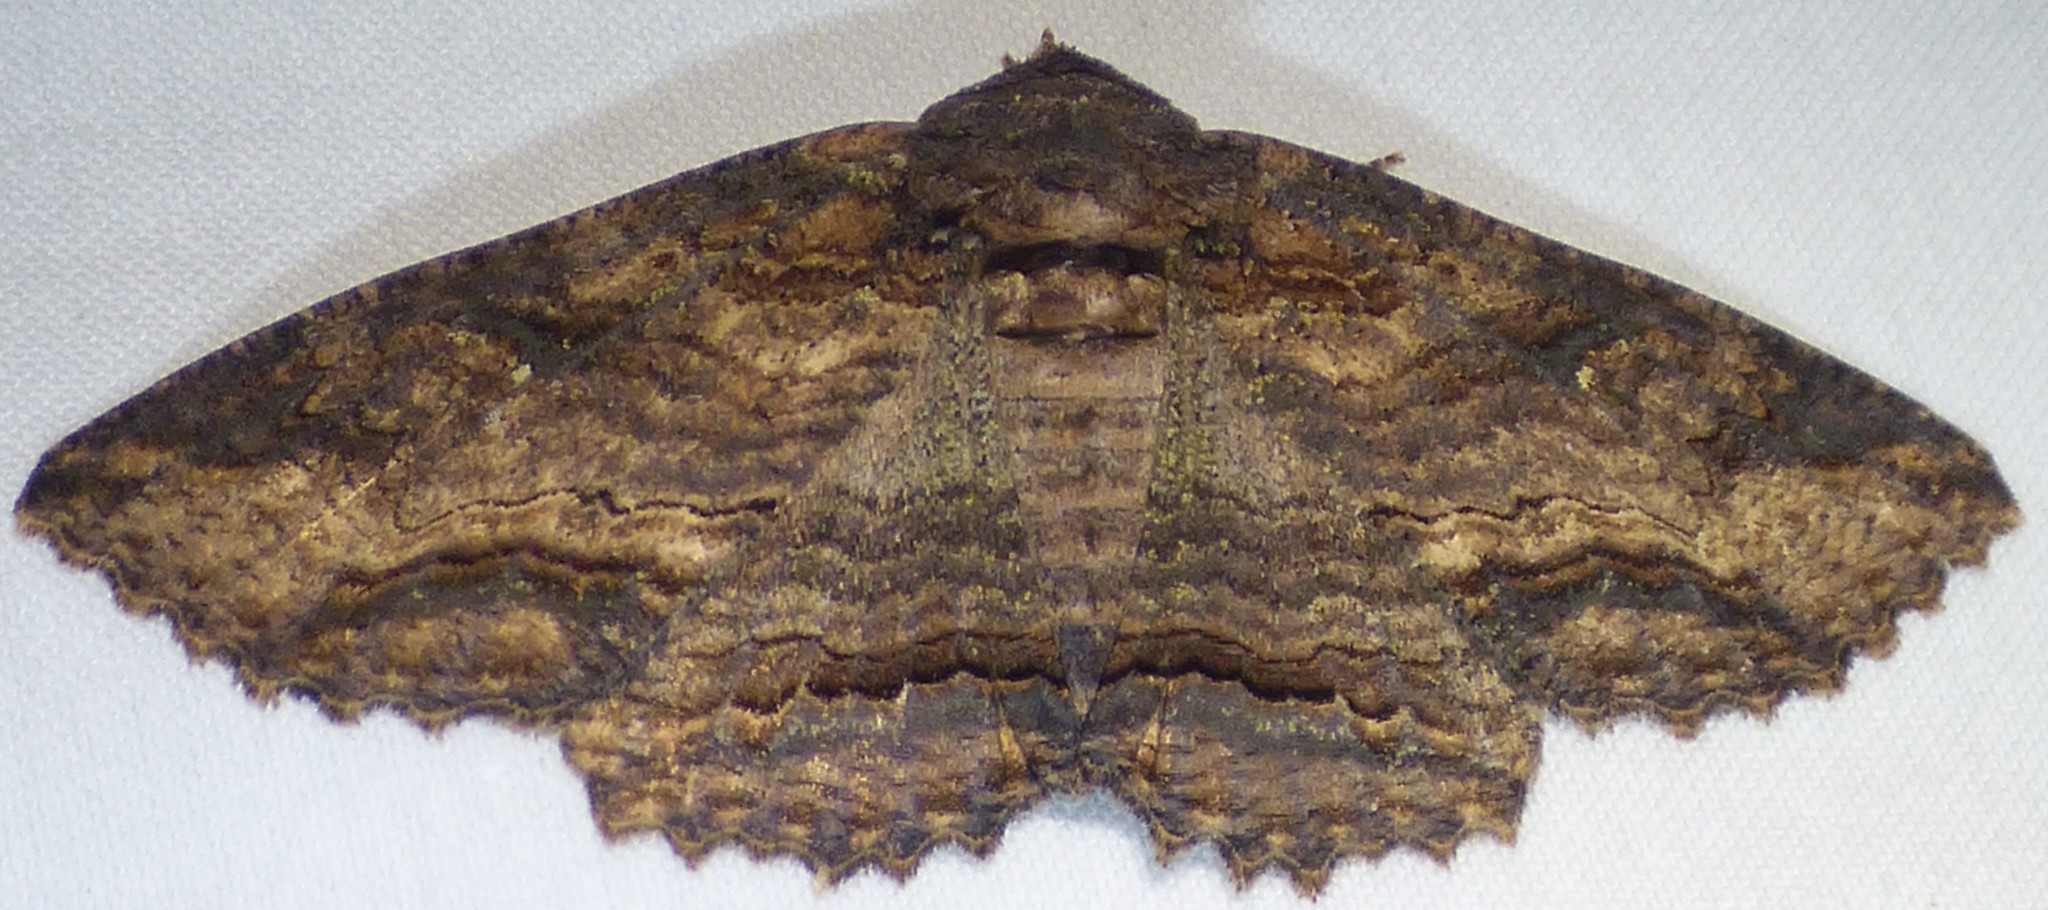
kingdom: Animalia
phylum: Arthropoda
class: Insecta
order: Lepidoptera
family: Erebidae
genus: Zale
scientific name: Zale lunata
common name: Lunate zale moth
